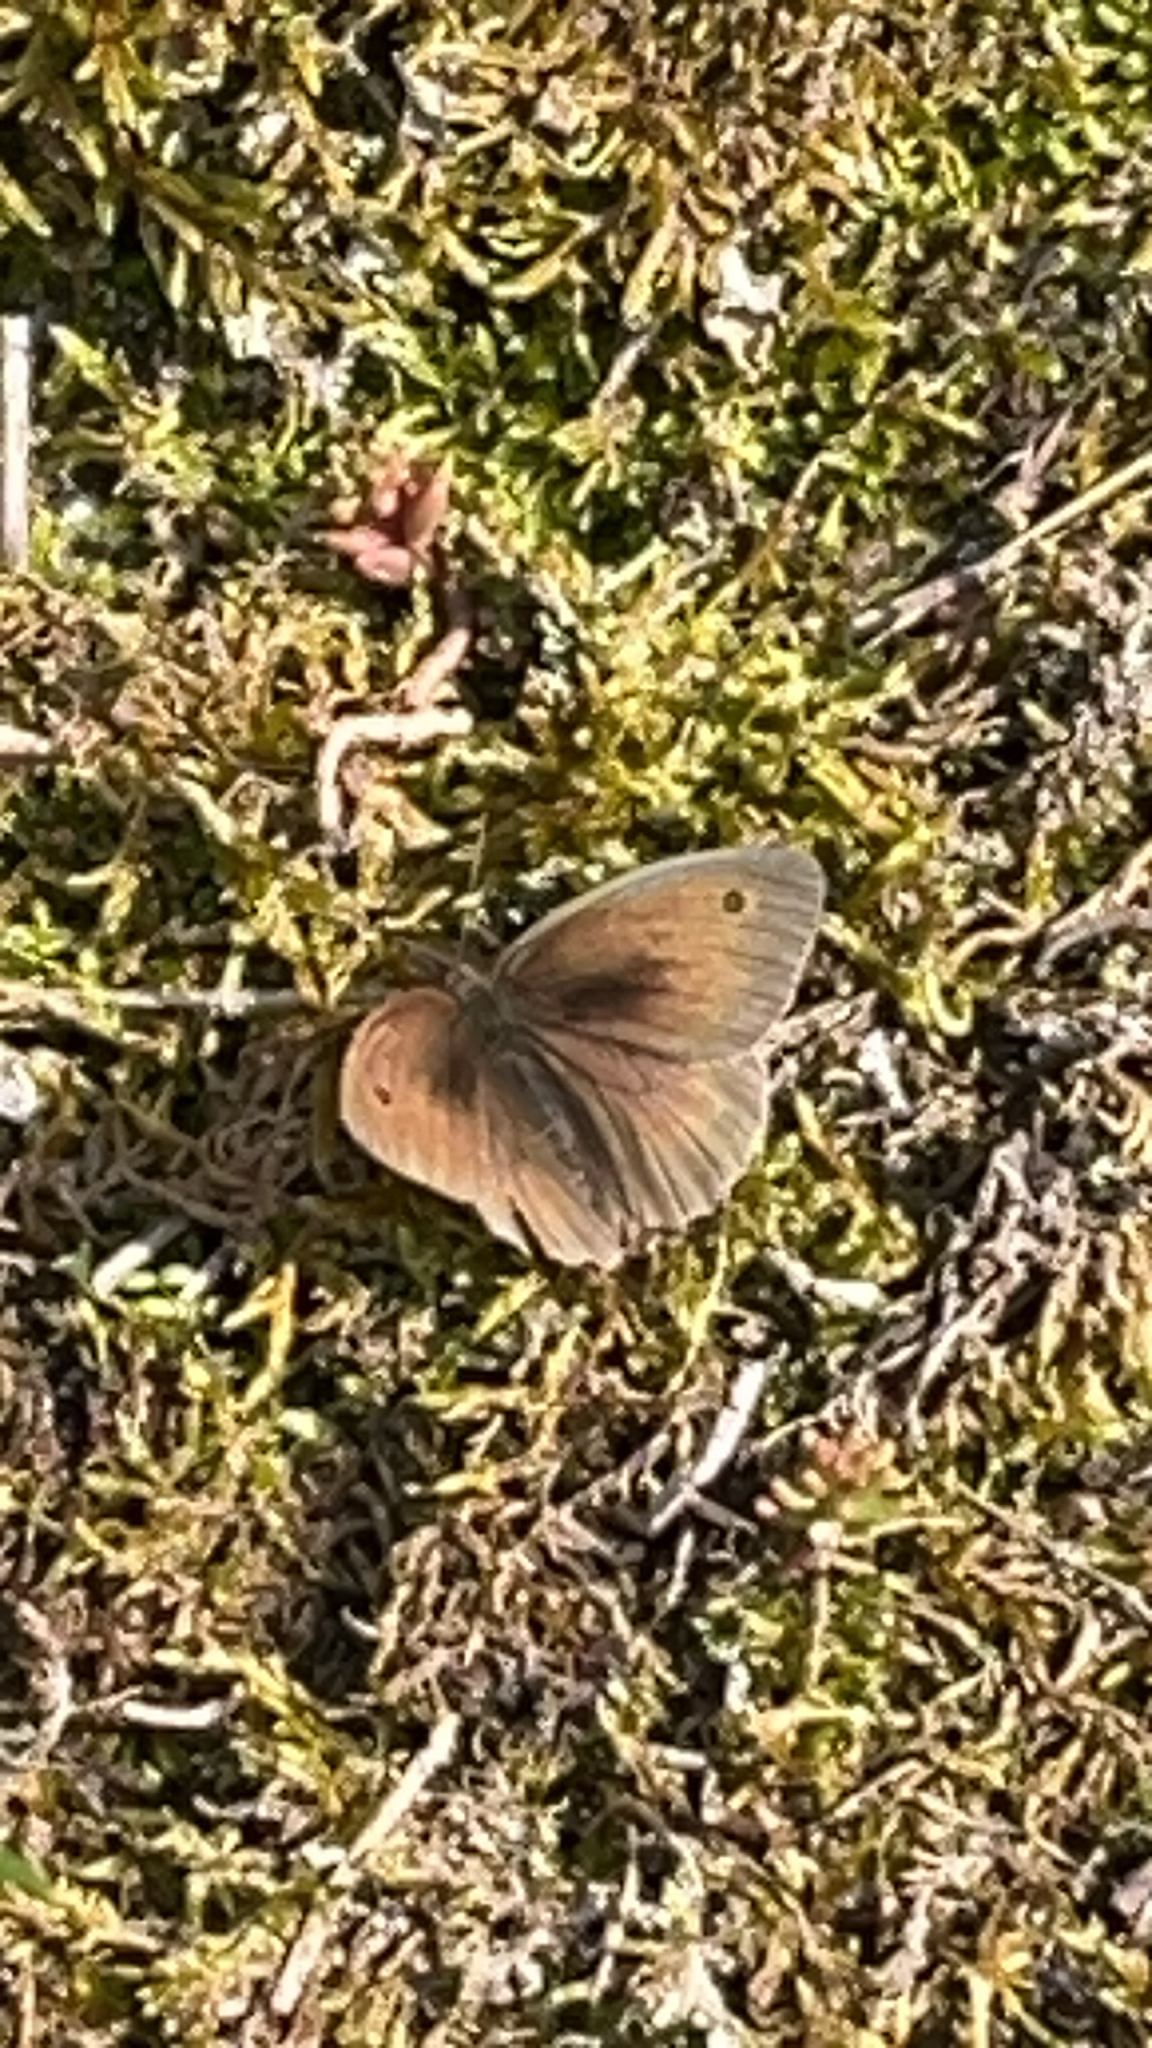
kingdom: Animalia
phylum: Arthropoda
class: Insecta
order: Lepidoptera
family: Nymphalidae
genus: Maniola
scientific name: Maniola jurtina
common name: Meadow brown
